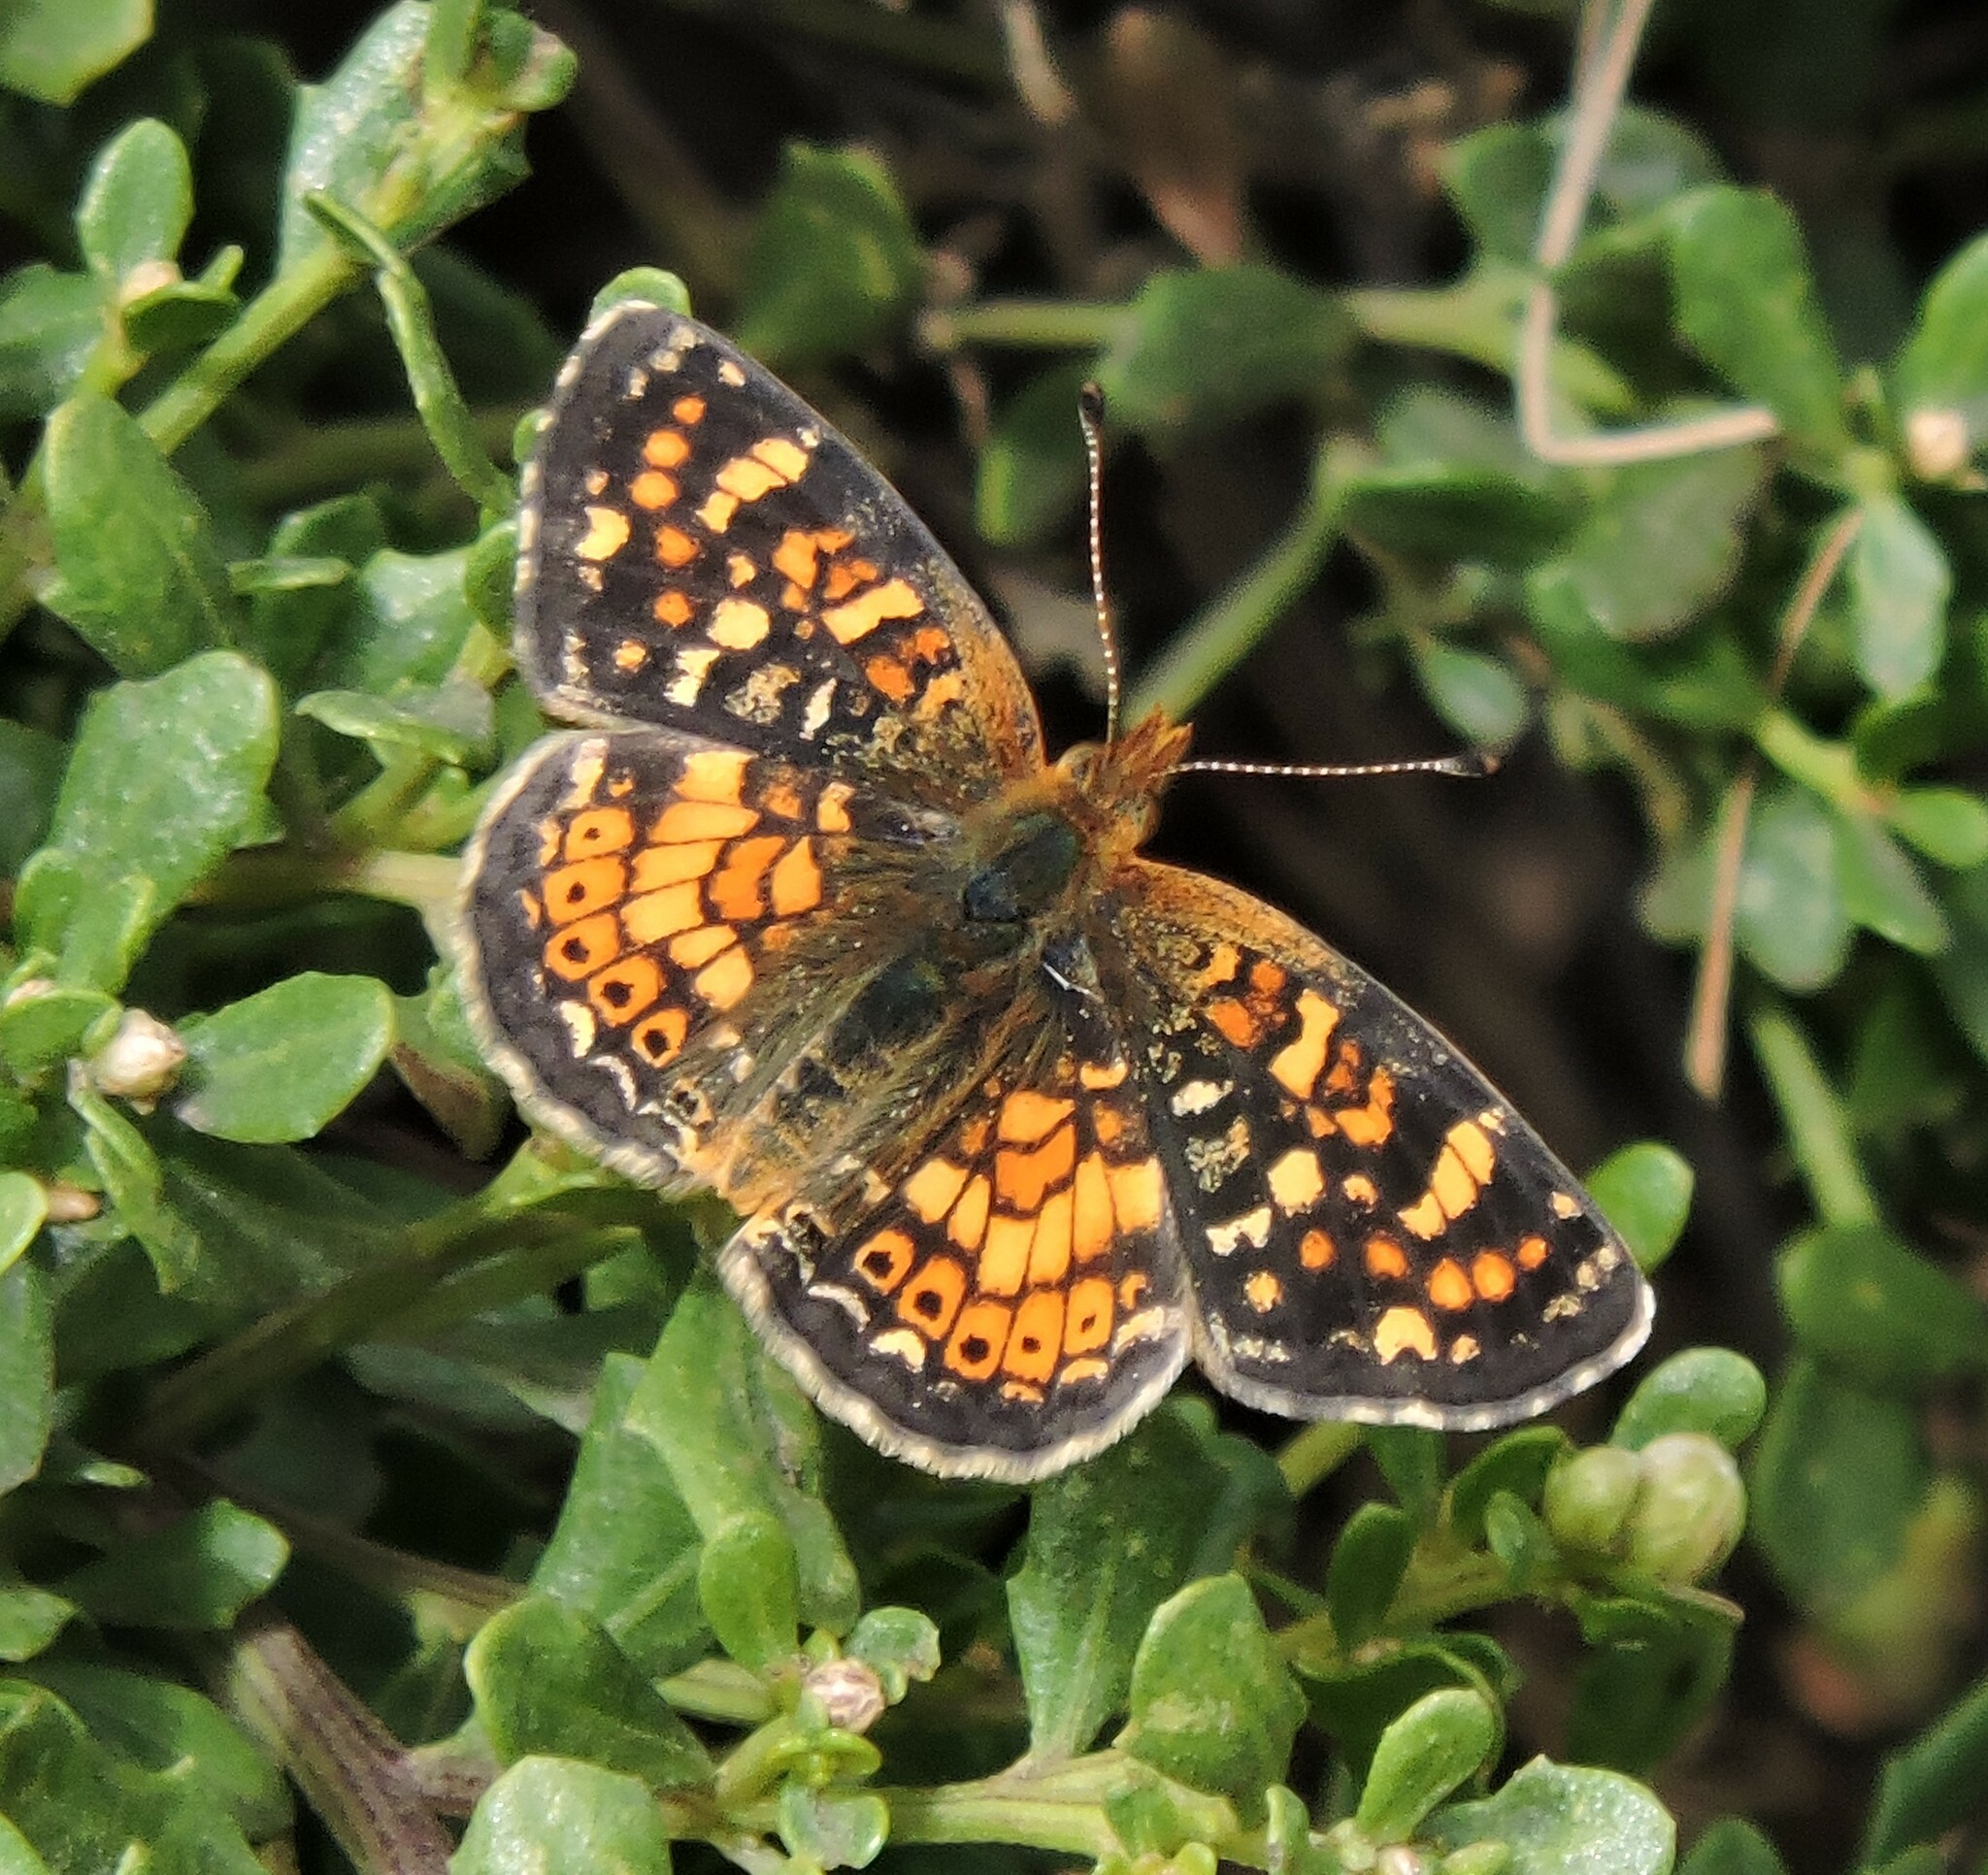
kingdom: Animalia
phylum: Arthropoda
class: Insecta
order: Lepidoptera
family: Nymphalidae
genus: Phyciodes
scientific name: Phyciodes tharos
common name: Pearl crescent
